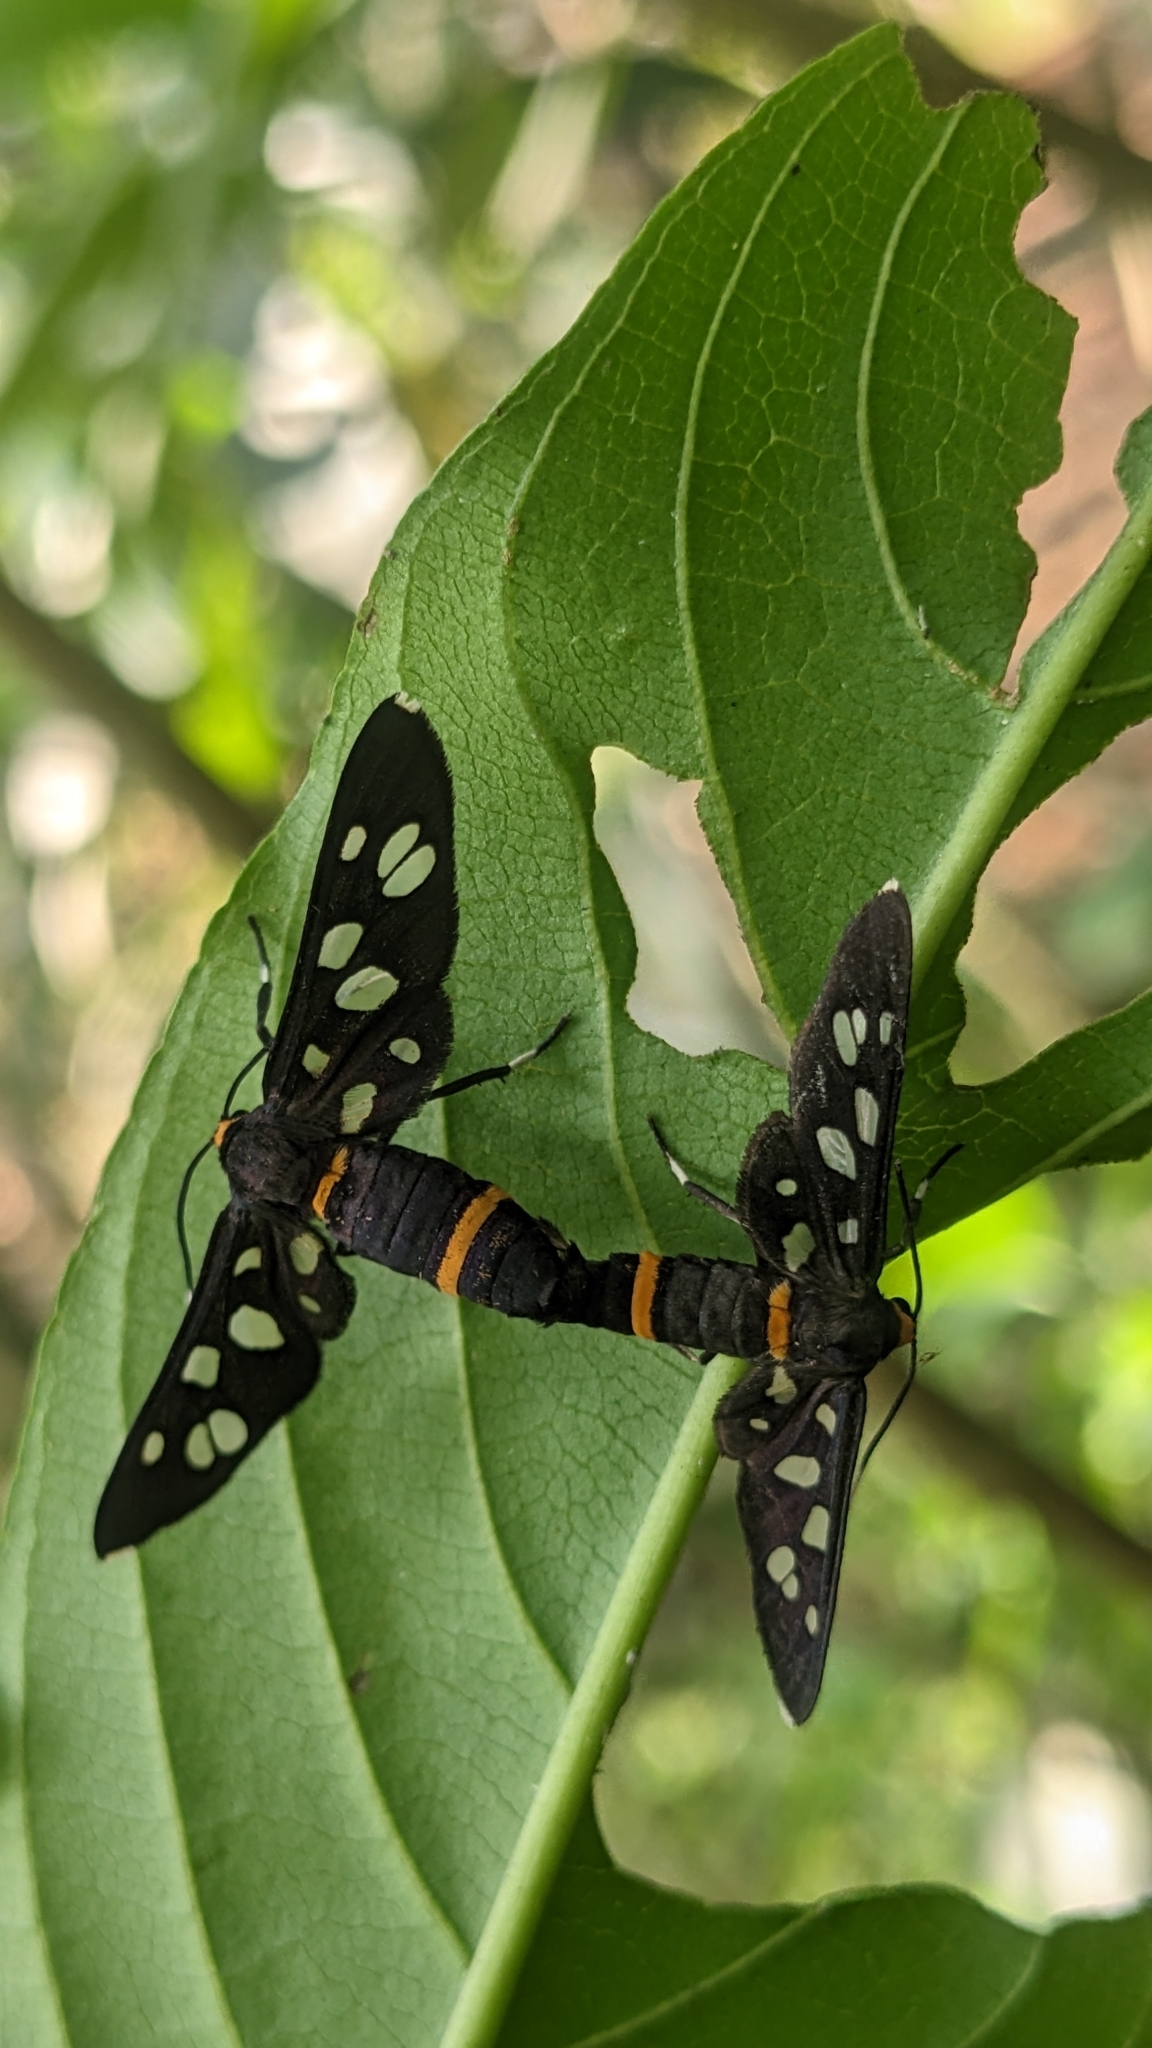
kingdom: Animalia
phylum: Arthropoda
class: Insecta
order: Lepidoptera
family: Erebidae
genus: Amata
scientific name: Amata cyssea
